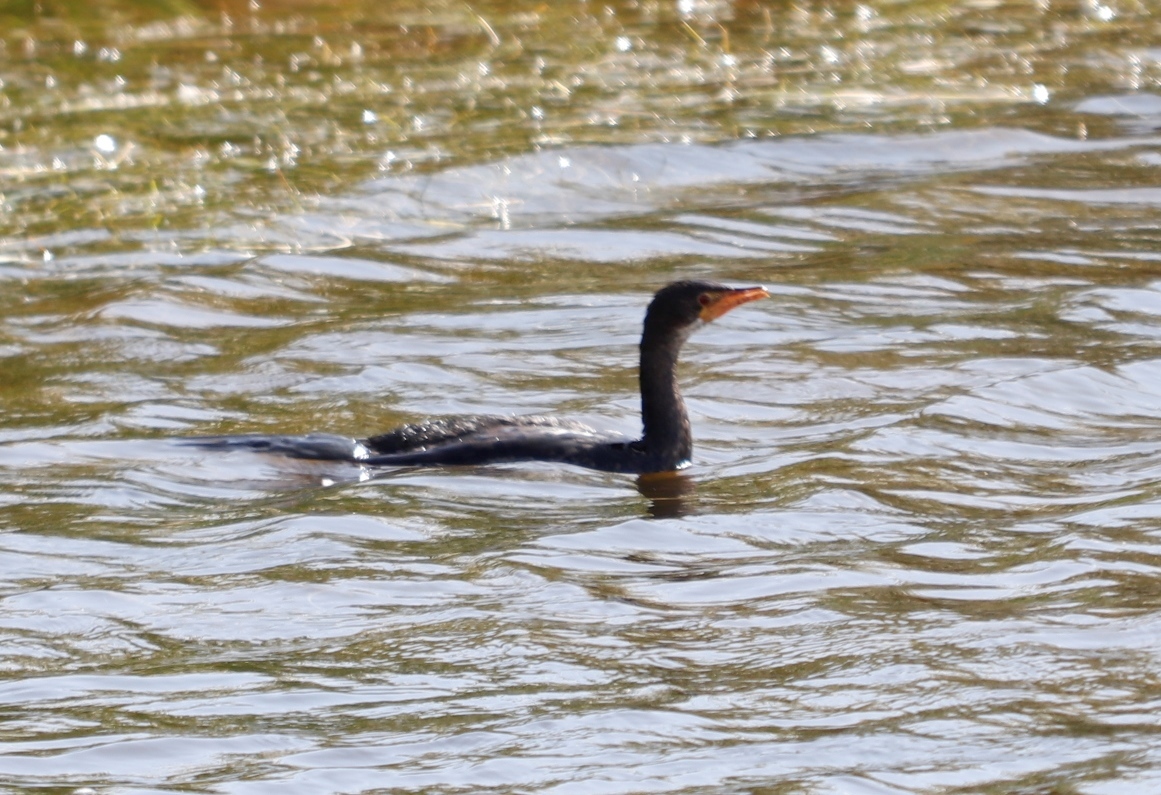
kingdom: Animalia
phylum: Chordata
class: Aves
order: Suliformes
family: Phalacrocoracidae
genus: Microcarbo
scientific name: Microcarbo africanus
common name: Long-tailed cormorant
